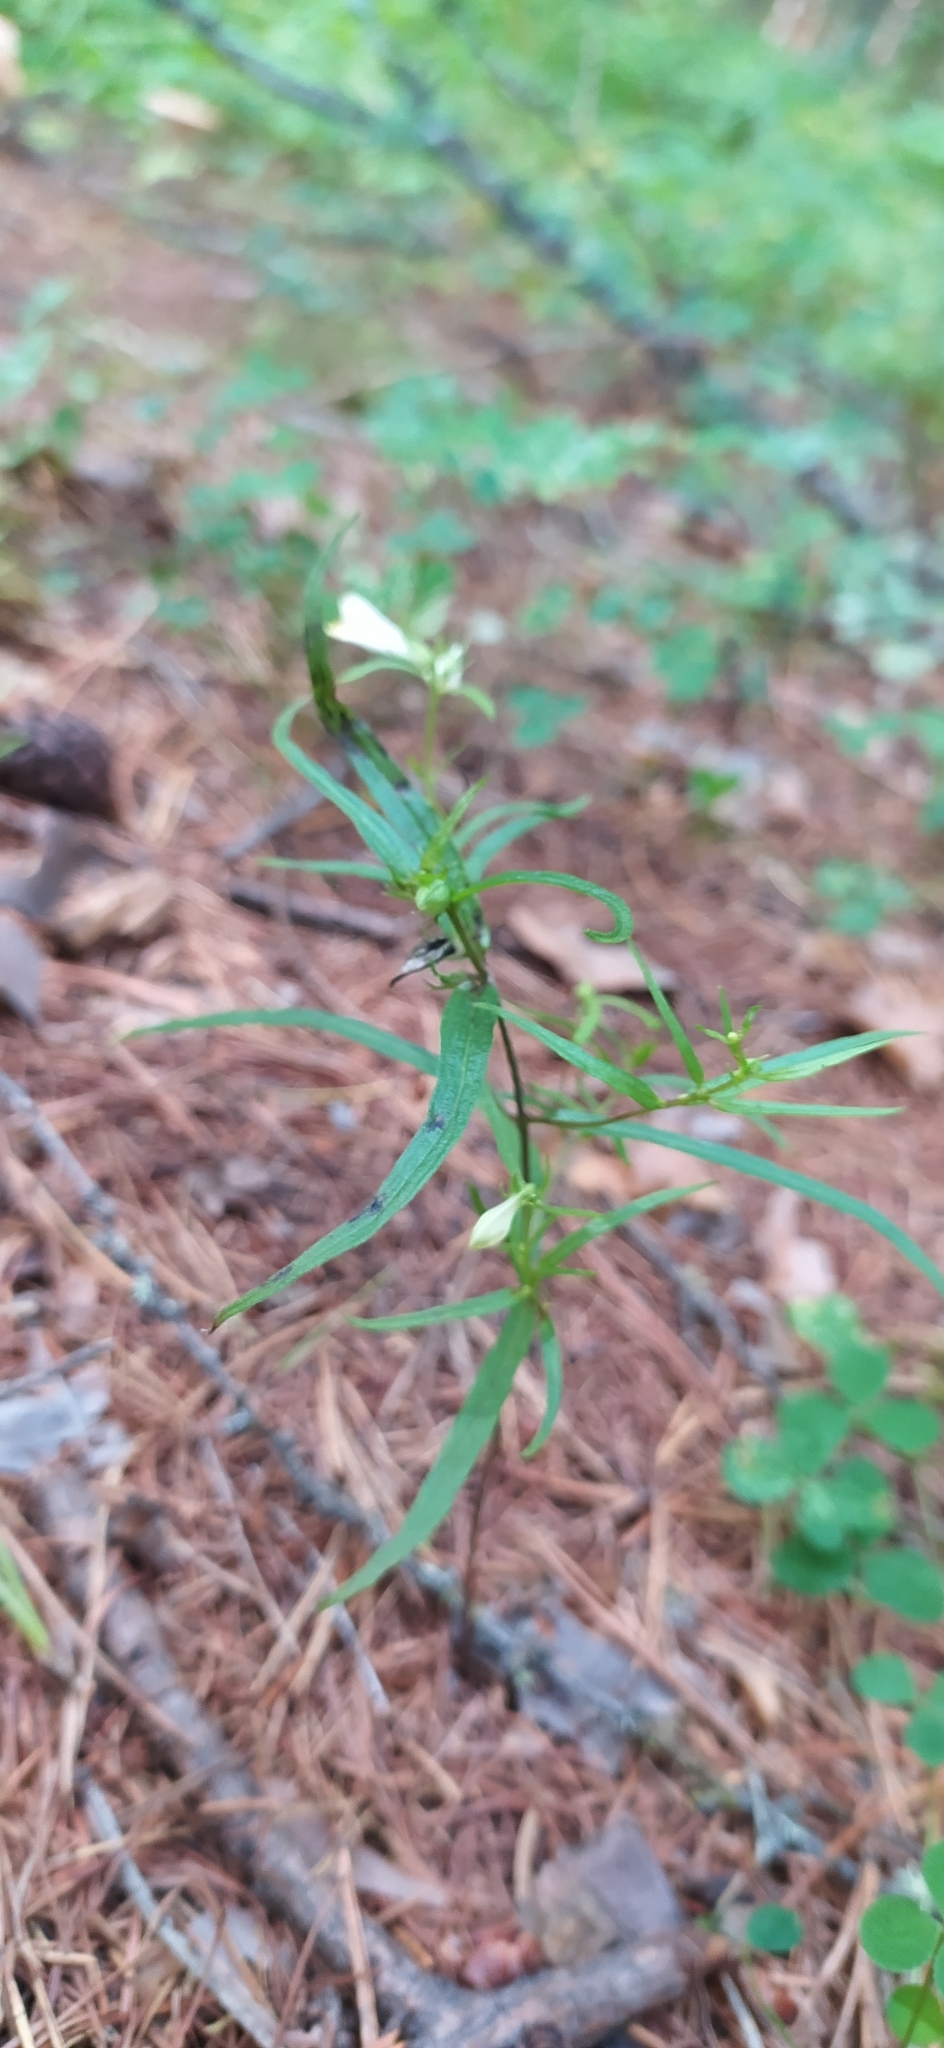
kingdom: Plantae
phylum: Tracheophyta
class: Magnoliopsida
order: Lamiales
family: Orobanchaceae
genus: Melampyrum
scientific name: Melampyrum pratense
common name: Common cow-wheat
